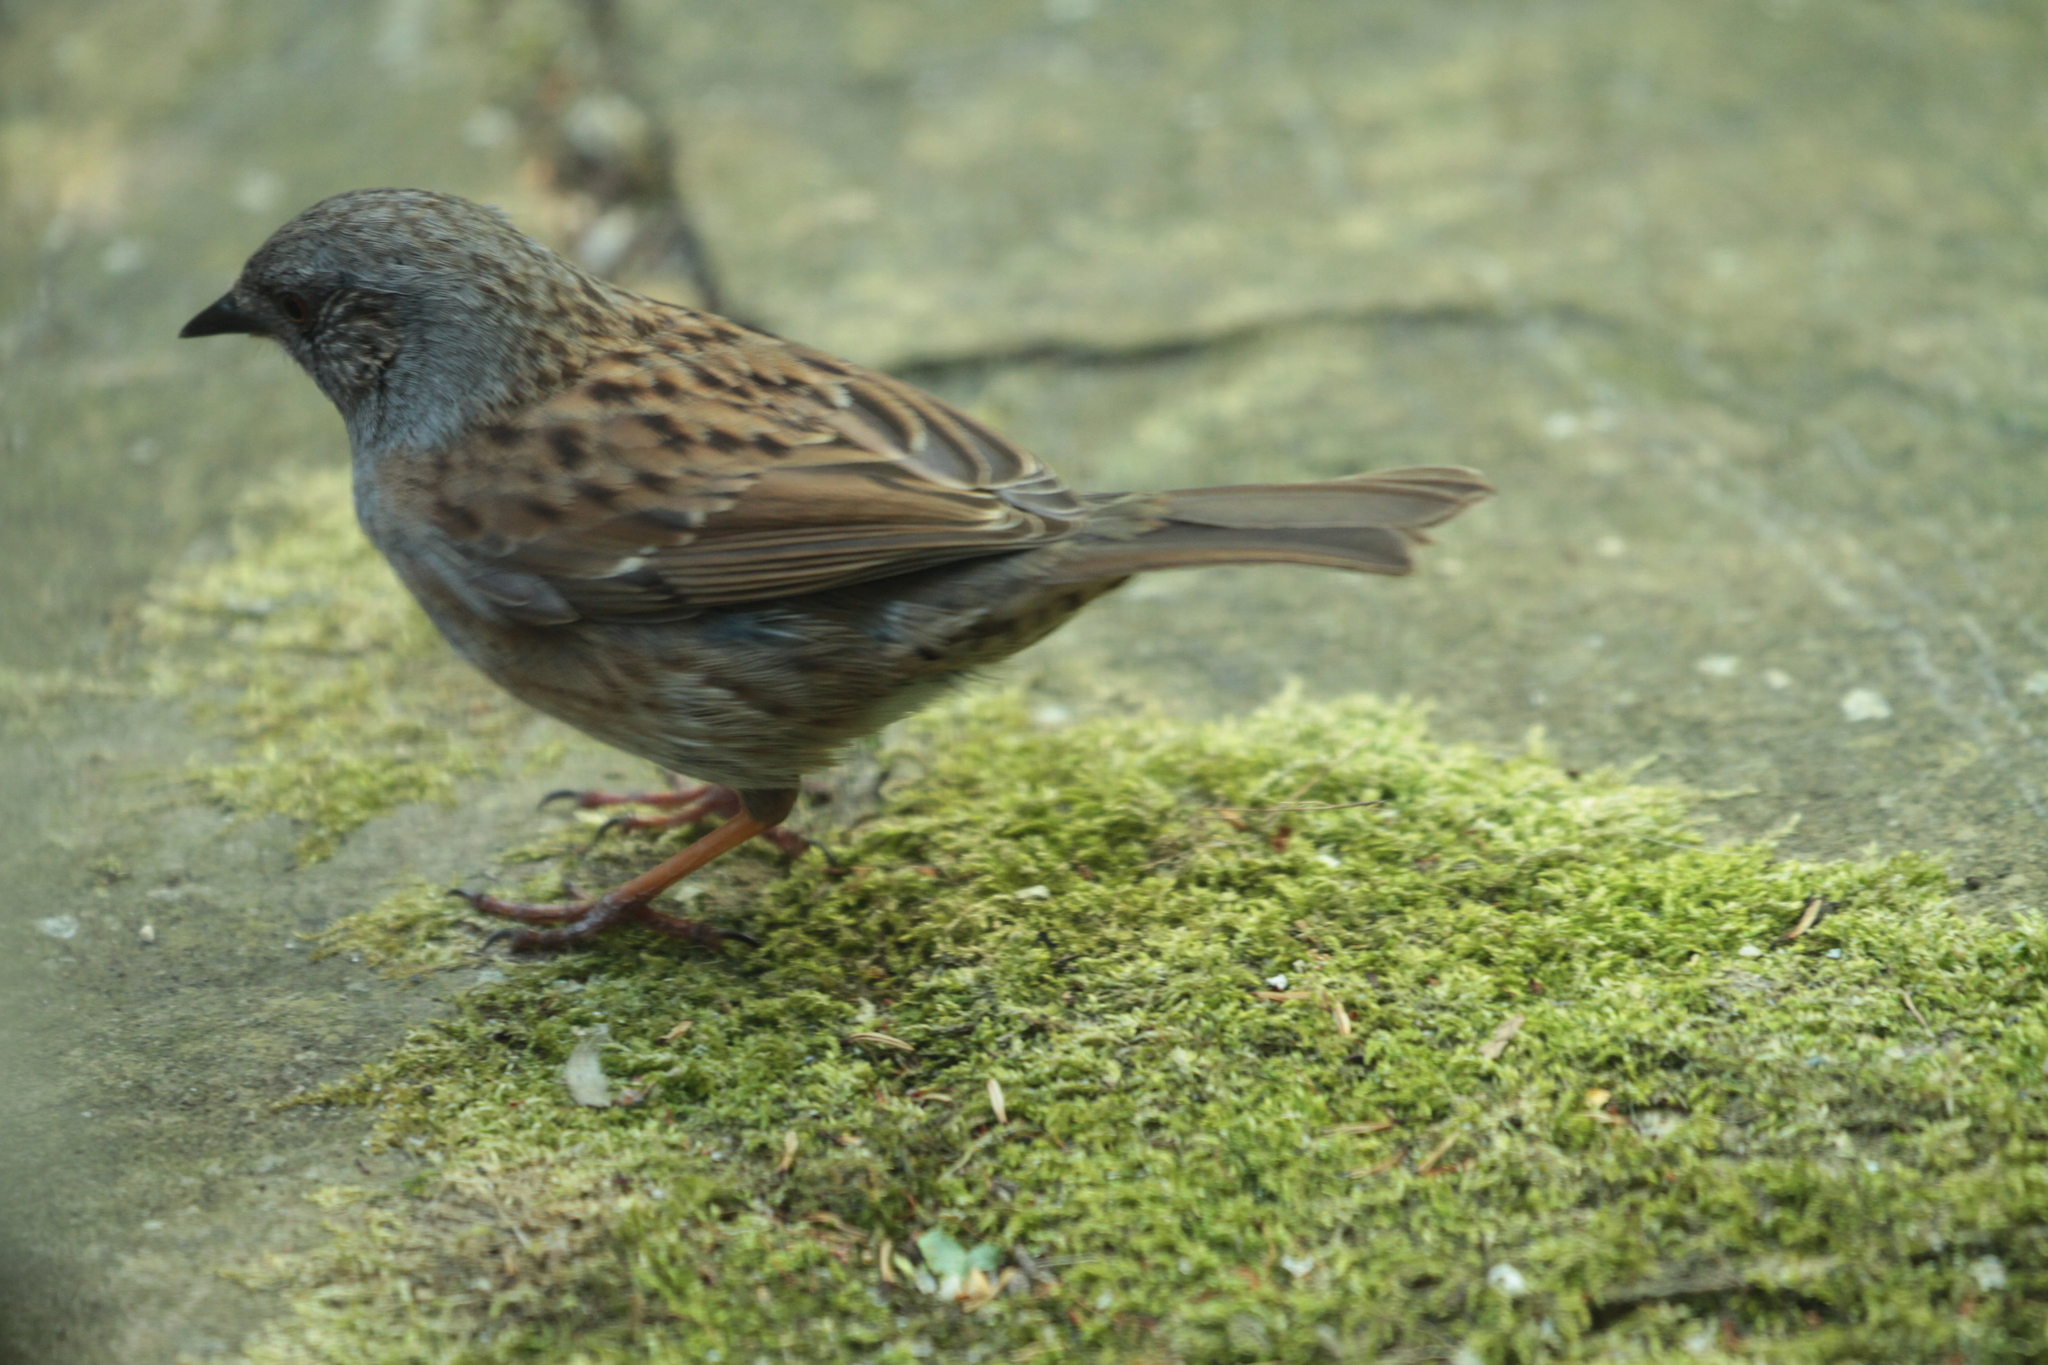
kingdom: Animalia
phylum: Chordata
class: Aves
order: Passeriformes
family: Prunellidae
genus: Prunella
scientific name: Prunella modularis
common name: Dunnock
